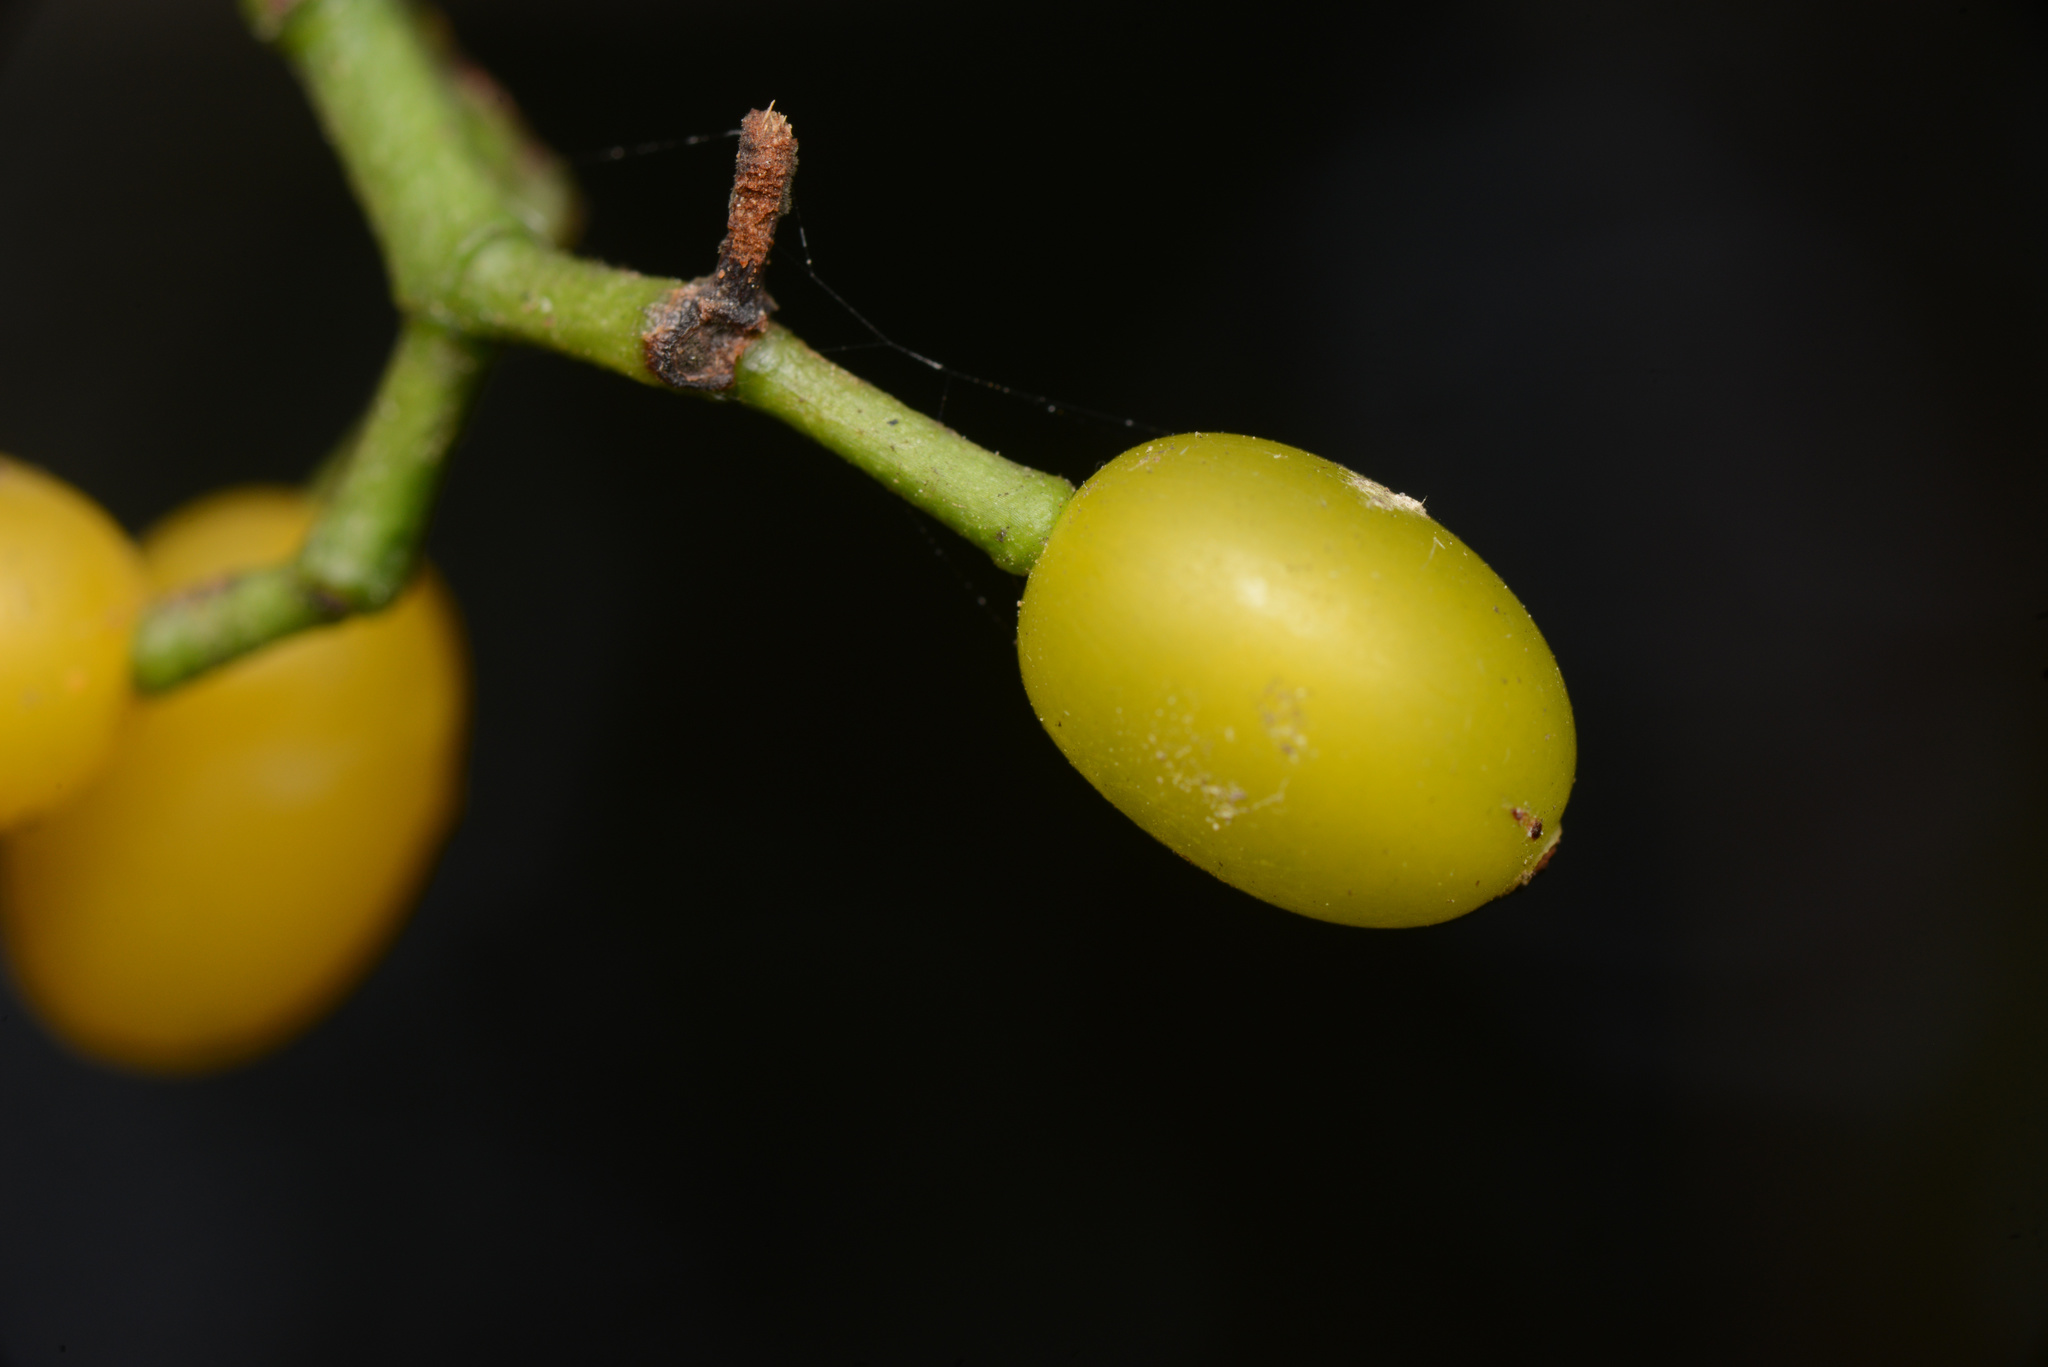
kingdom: Plantae
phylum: Tracheophyta
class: Magnoliopsida
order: Santalales
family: Loranthaceae
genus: Ileostylus
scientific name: Ileostylus micranthus
